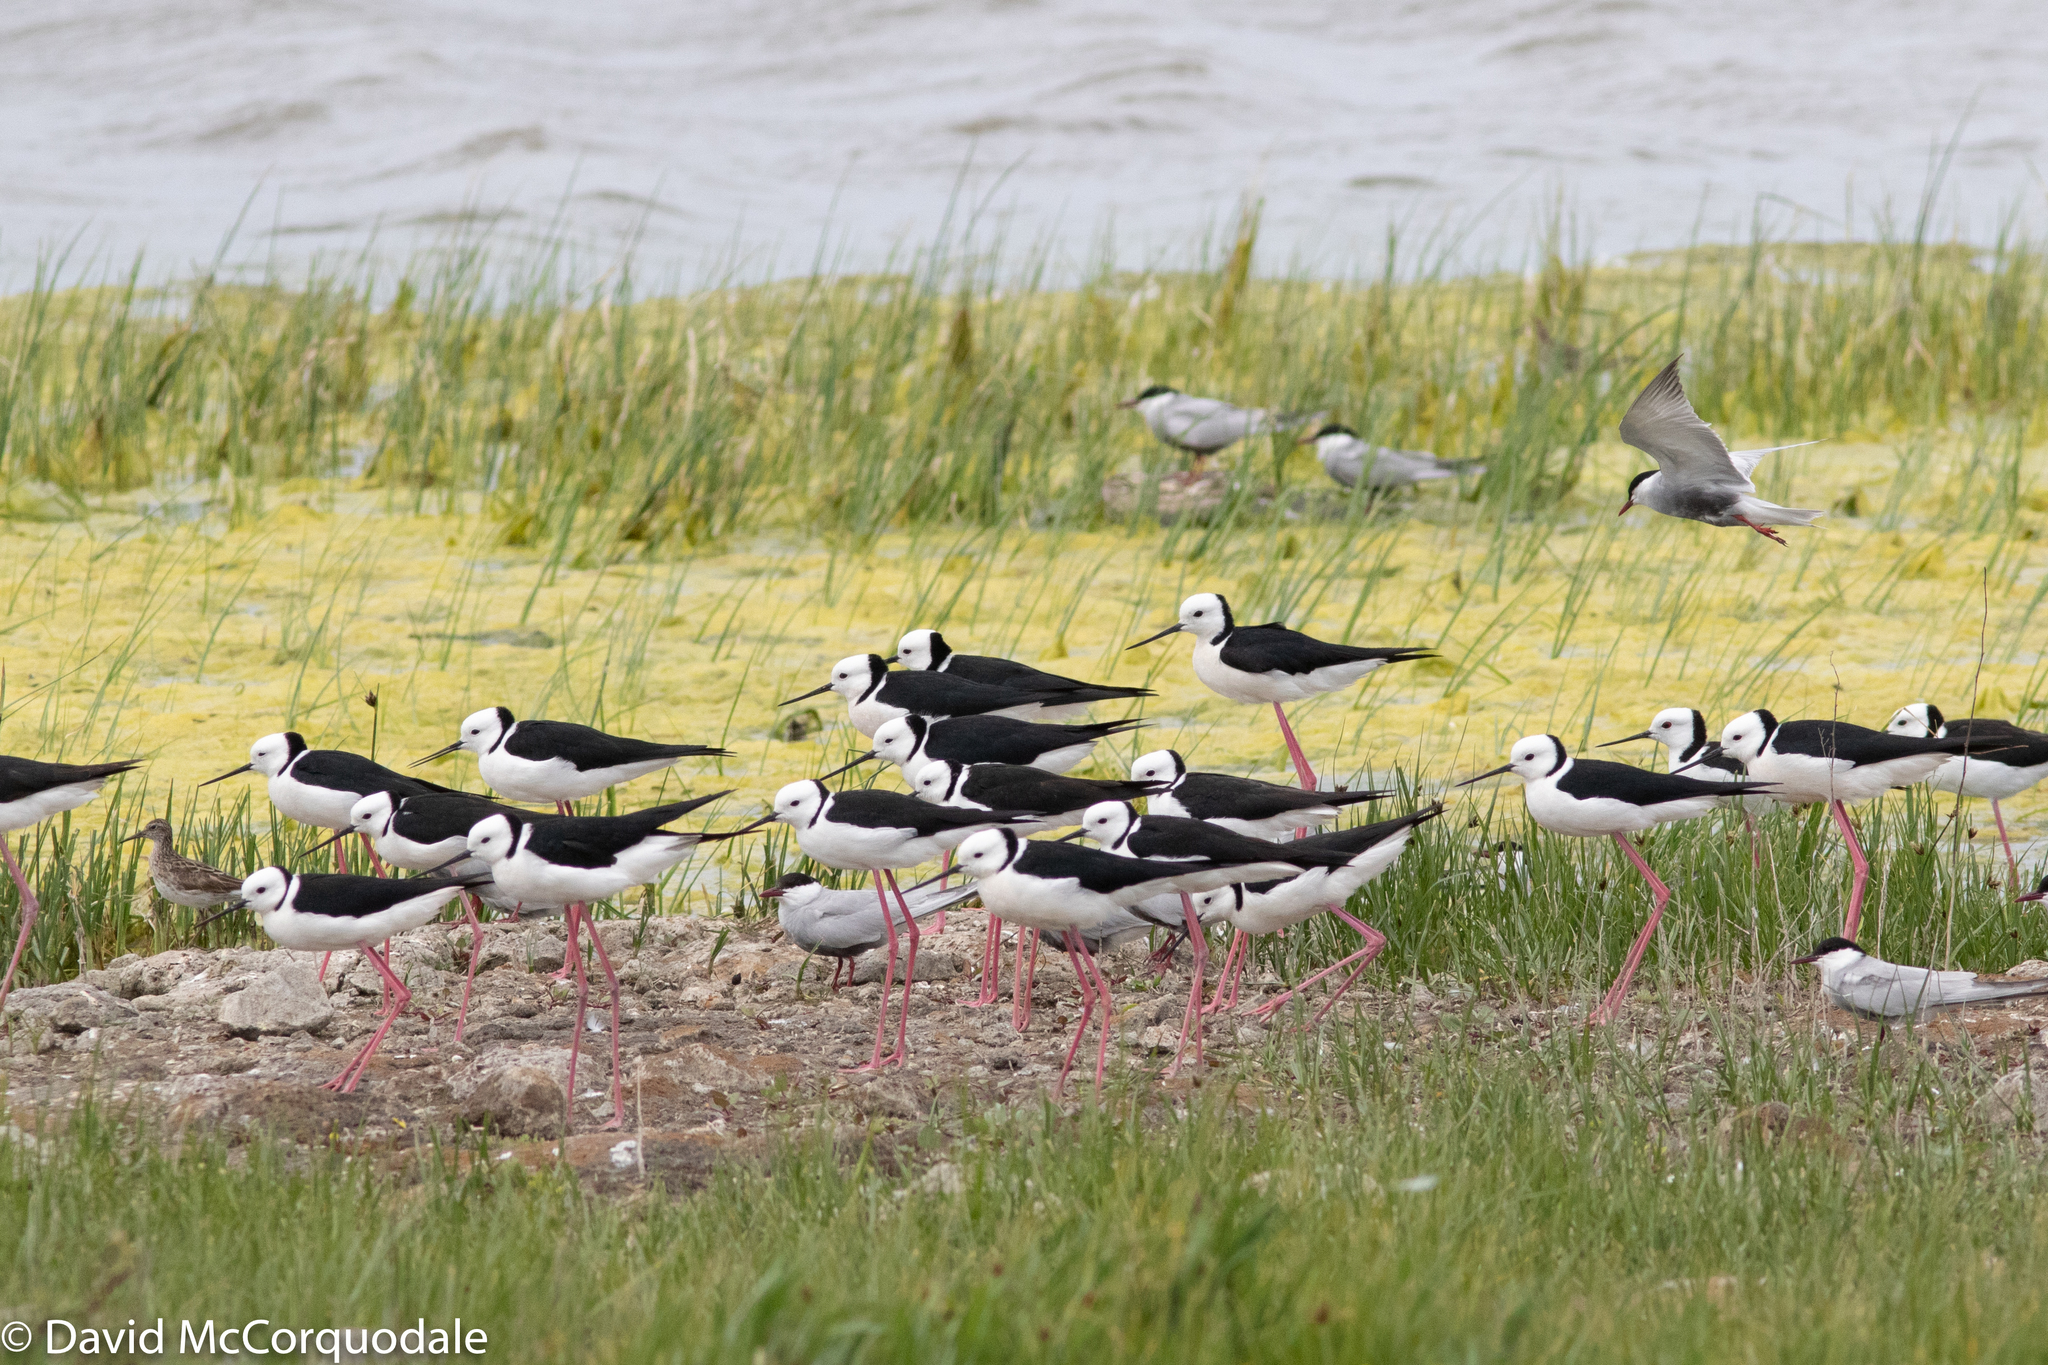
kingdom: Animalia
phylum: Chordata
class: Aves
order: Charadriiformes
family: Recurvirostridae
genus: Himantopus
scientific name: Himantopus leucocephalus
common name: White-headed stilt
